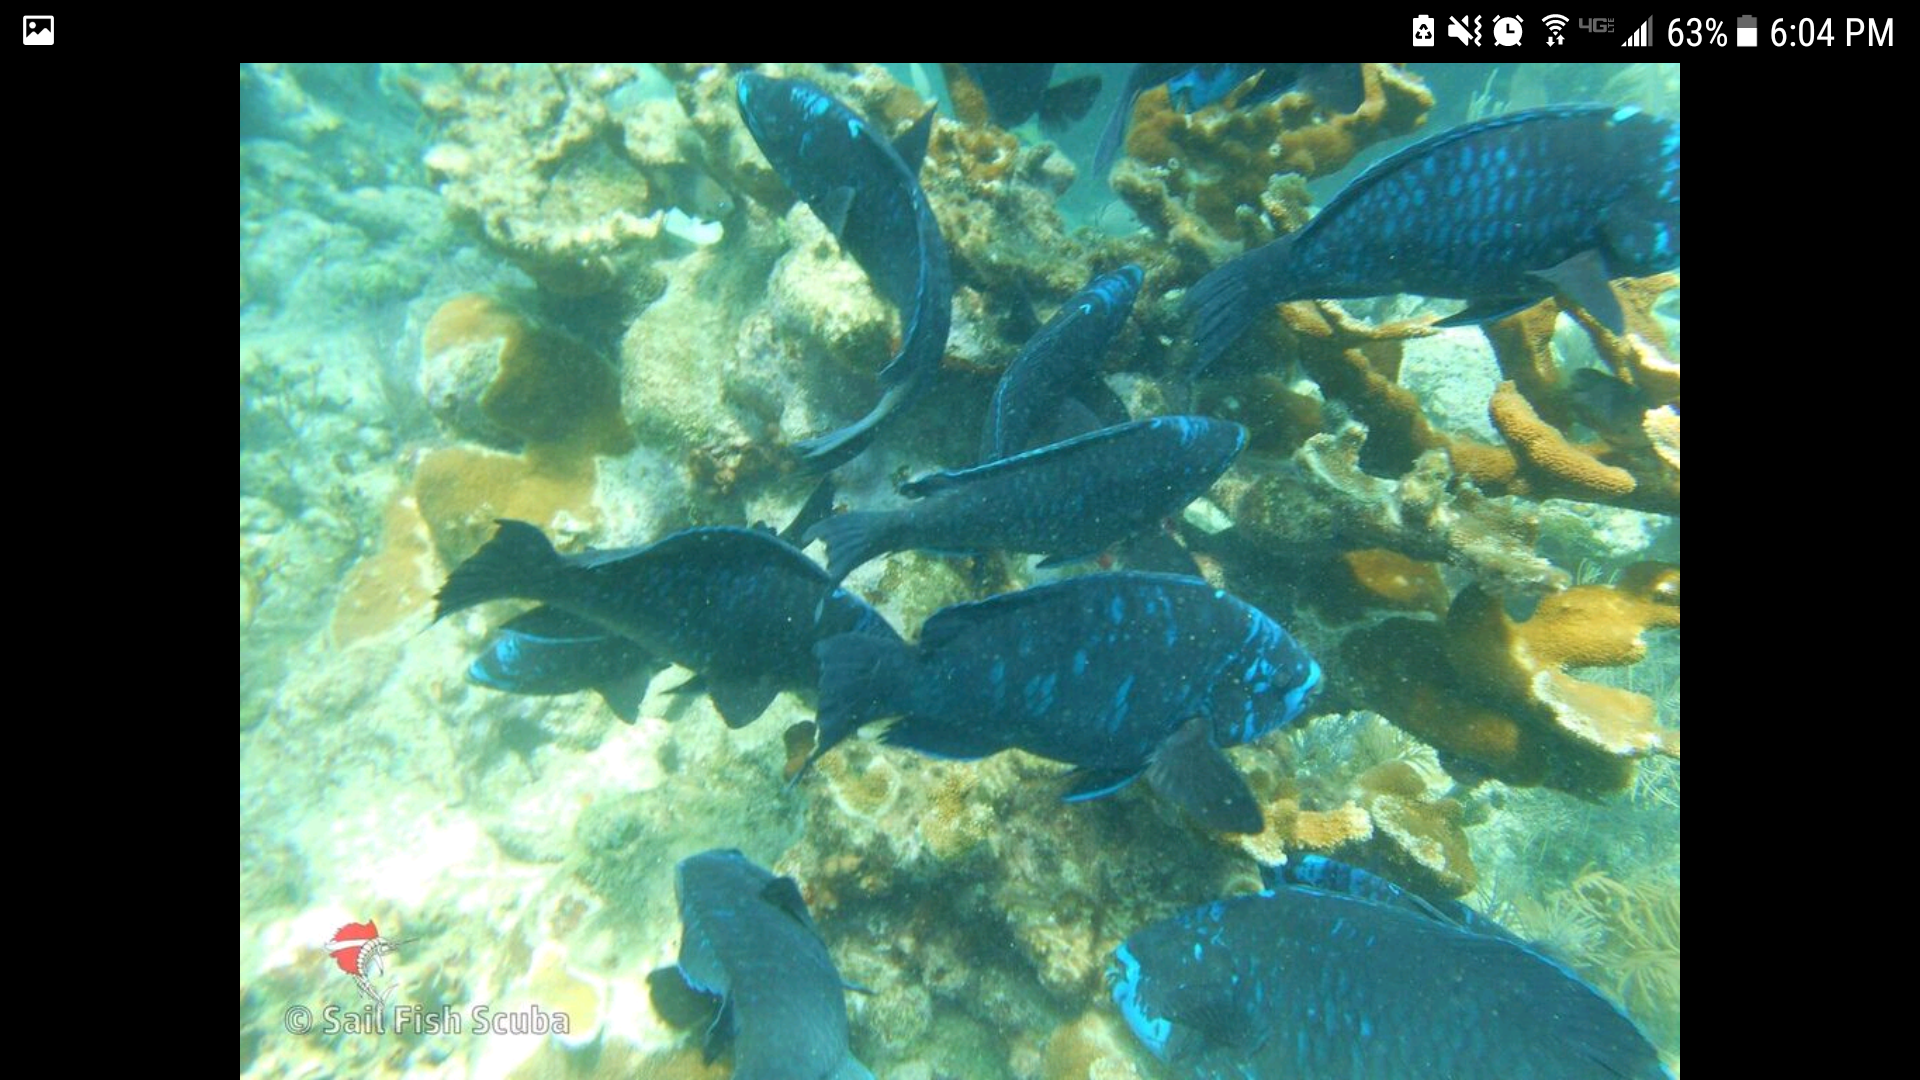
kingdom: Animalia
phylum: Chordata
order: Perciformes
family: Scaridae
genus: Scarus
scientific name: Scarus coelestinus
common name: Midnight parrotfish
